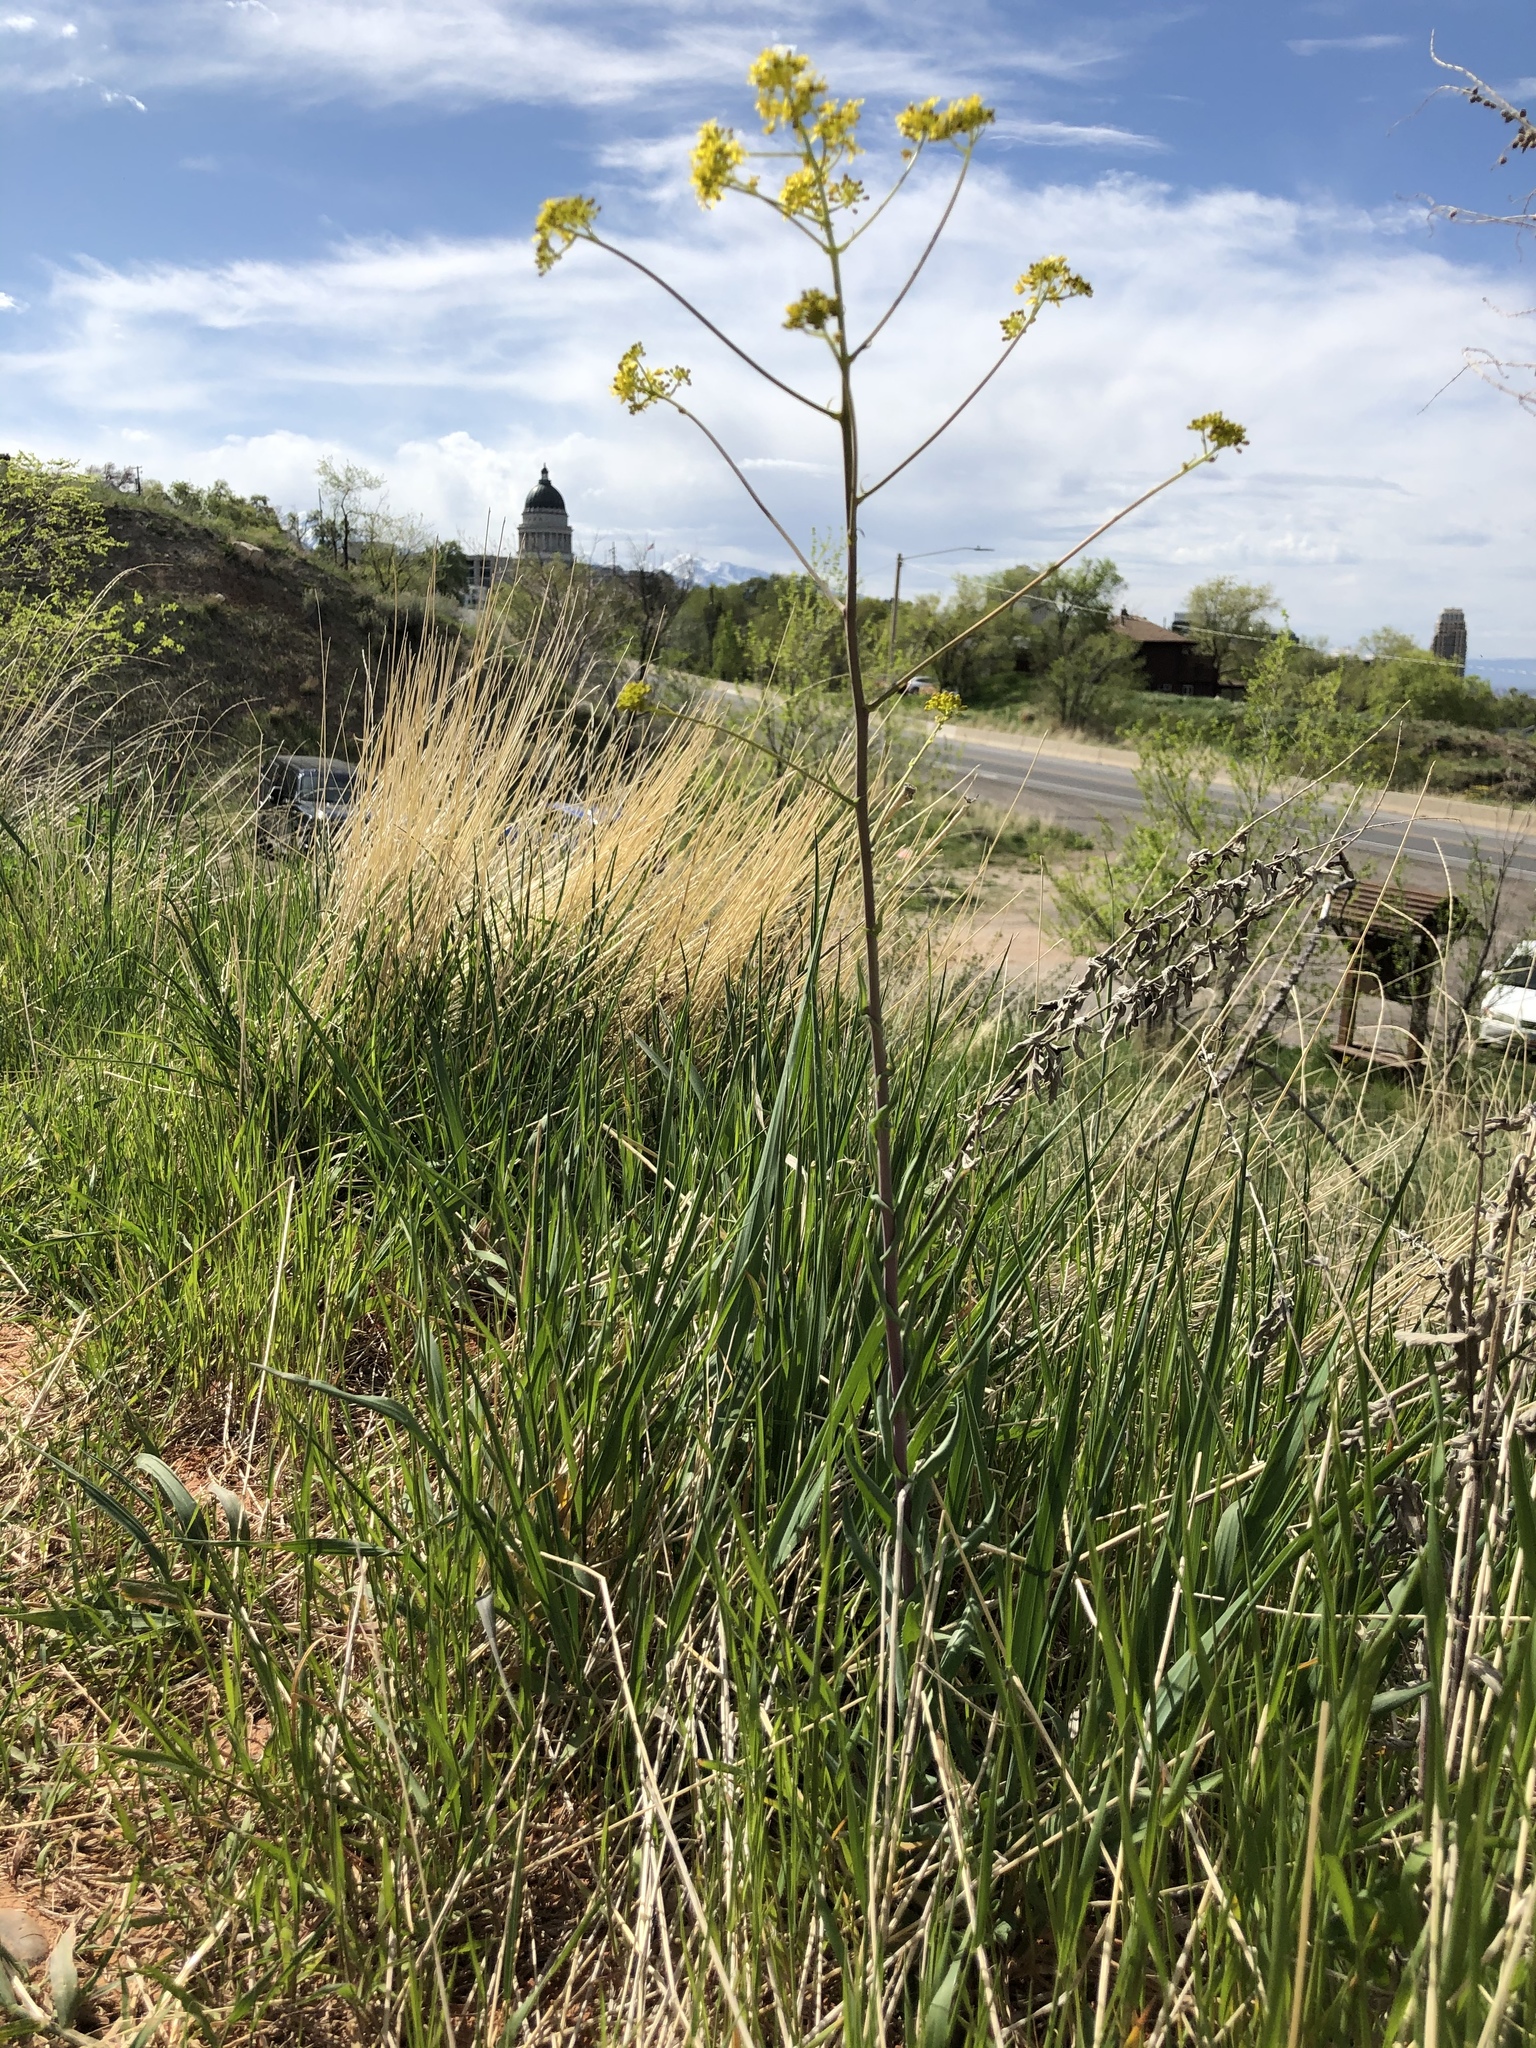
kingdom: Plantae
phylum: Tracheophyta
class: Magnoliopsida
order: Brassicales
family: Brassicaceae
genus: Isatis
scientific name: Isatis tinctoria
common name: Woad
